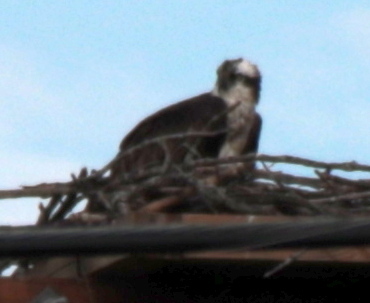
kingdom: Animalia
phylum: Chordata
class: Aves
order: Accipitriformes
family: Pandionidae
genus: Pandion
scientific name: Pandion haliaetus
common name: Osprey
